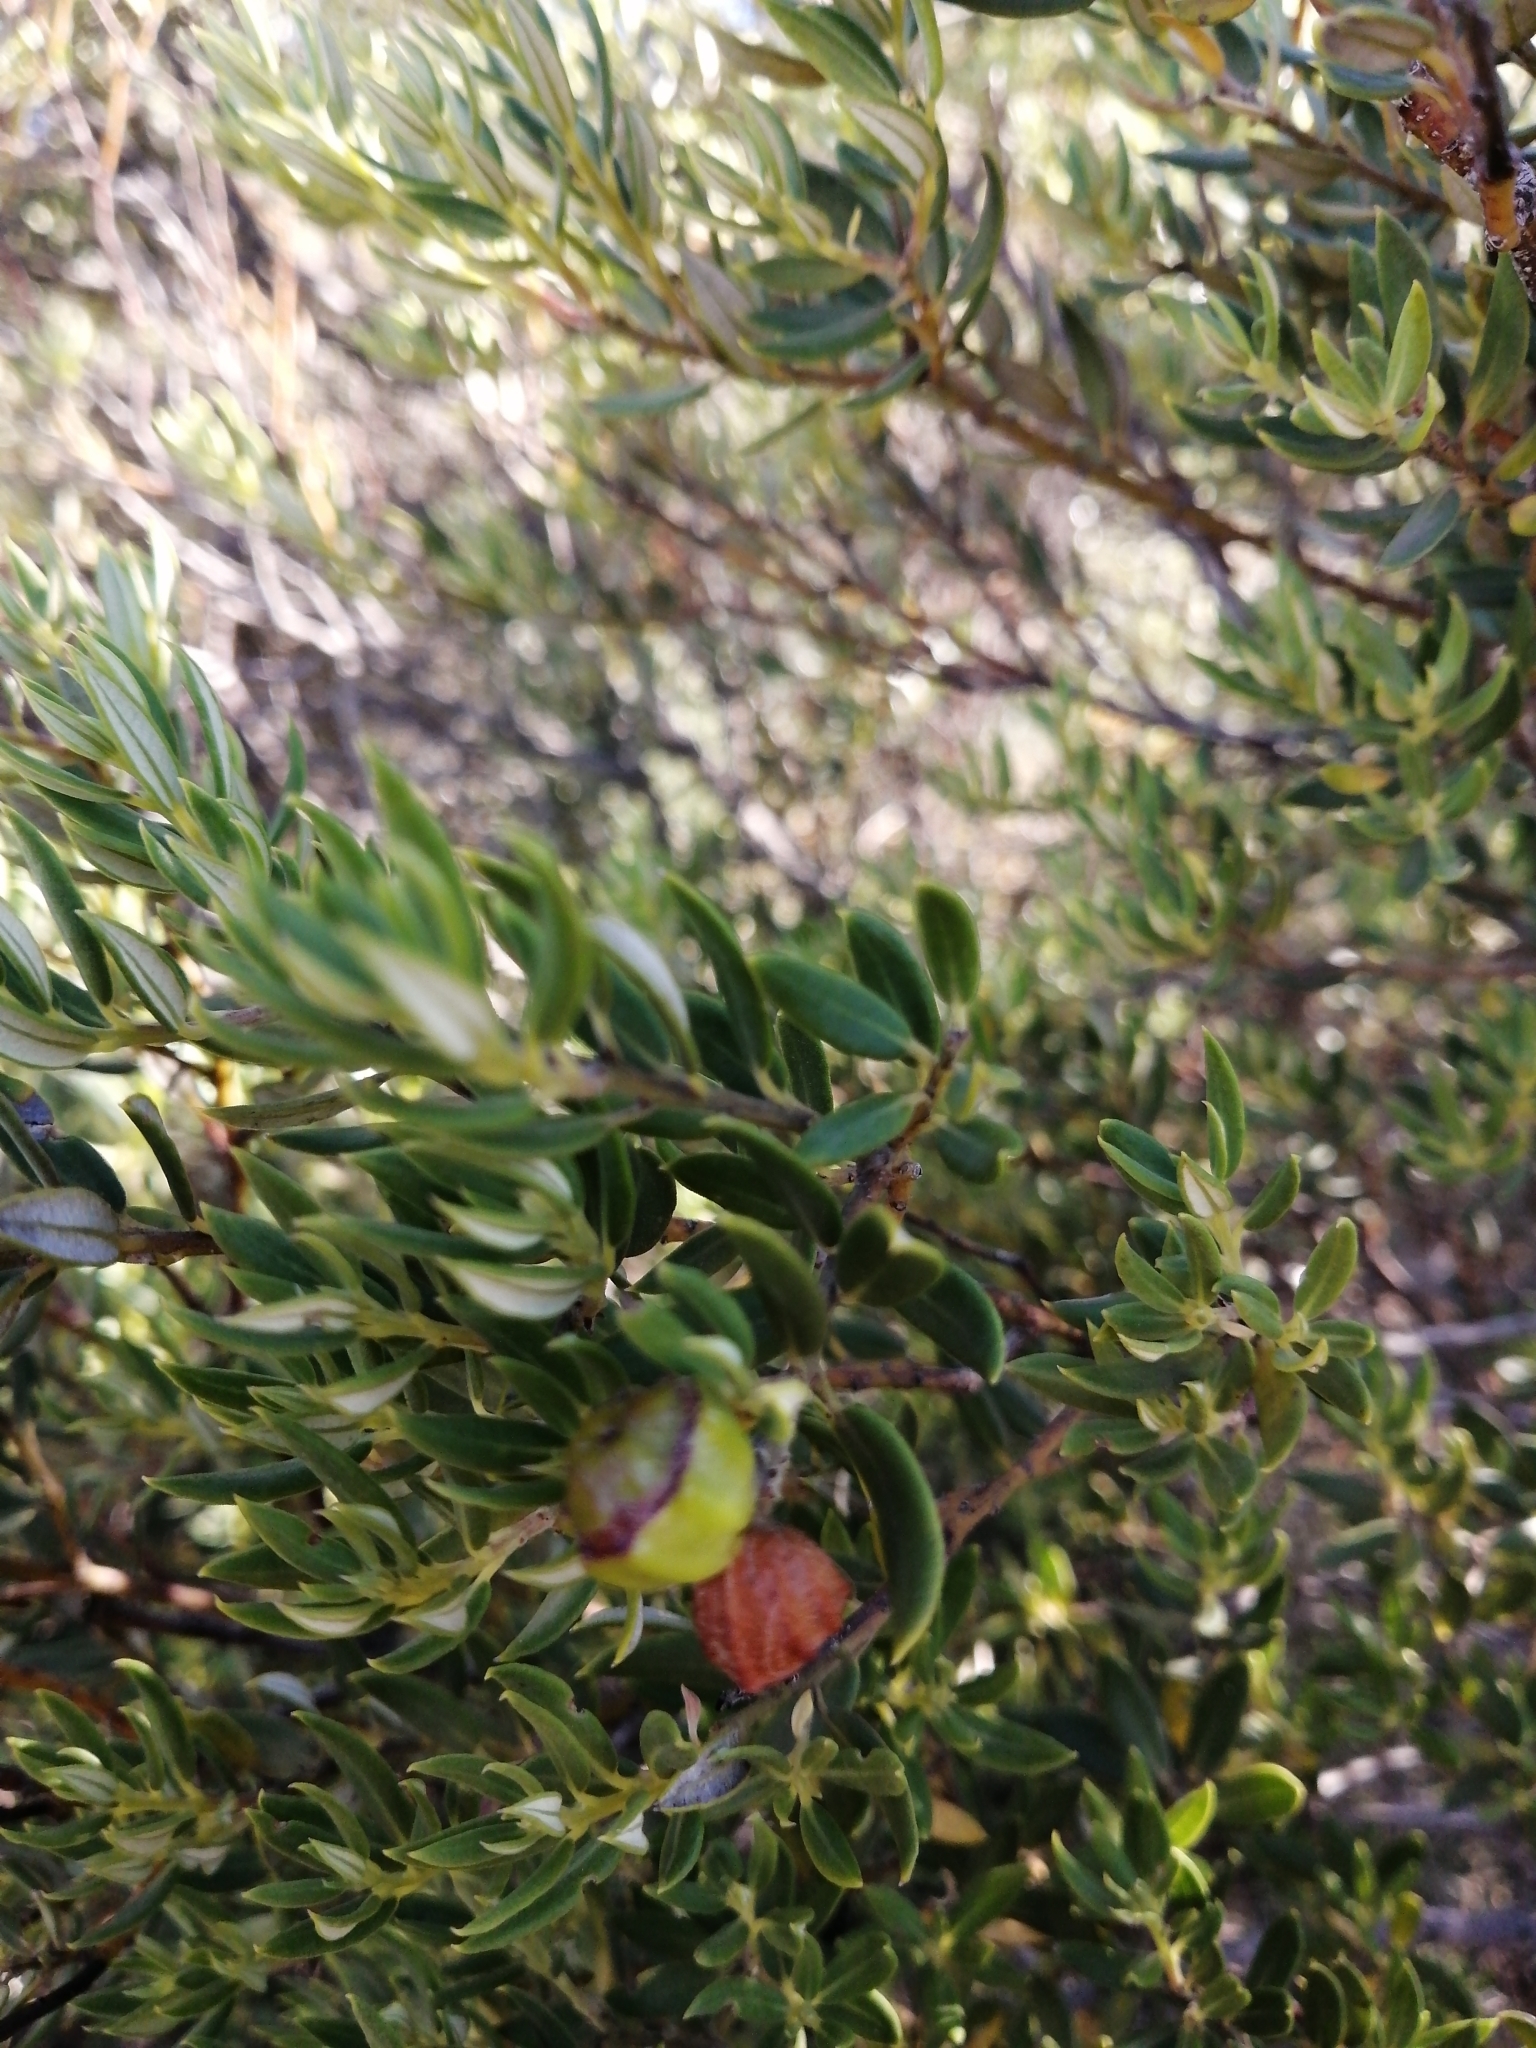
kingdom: Plantae
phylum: Tracheophyta
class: Magnoliopsida
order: Rosales
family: Rhamnaceae
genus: Phylica
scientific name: Phylica oleifolia
